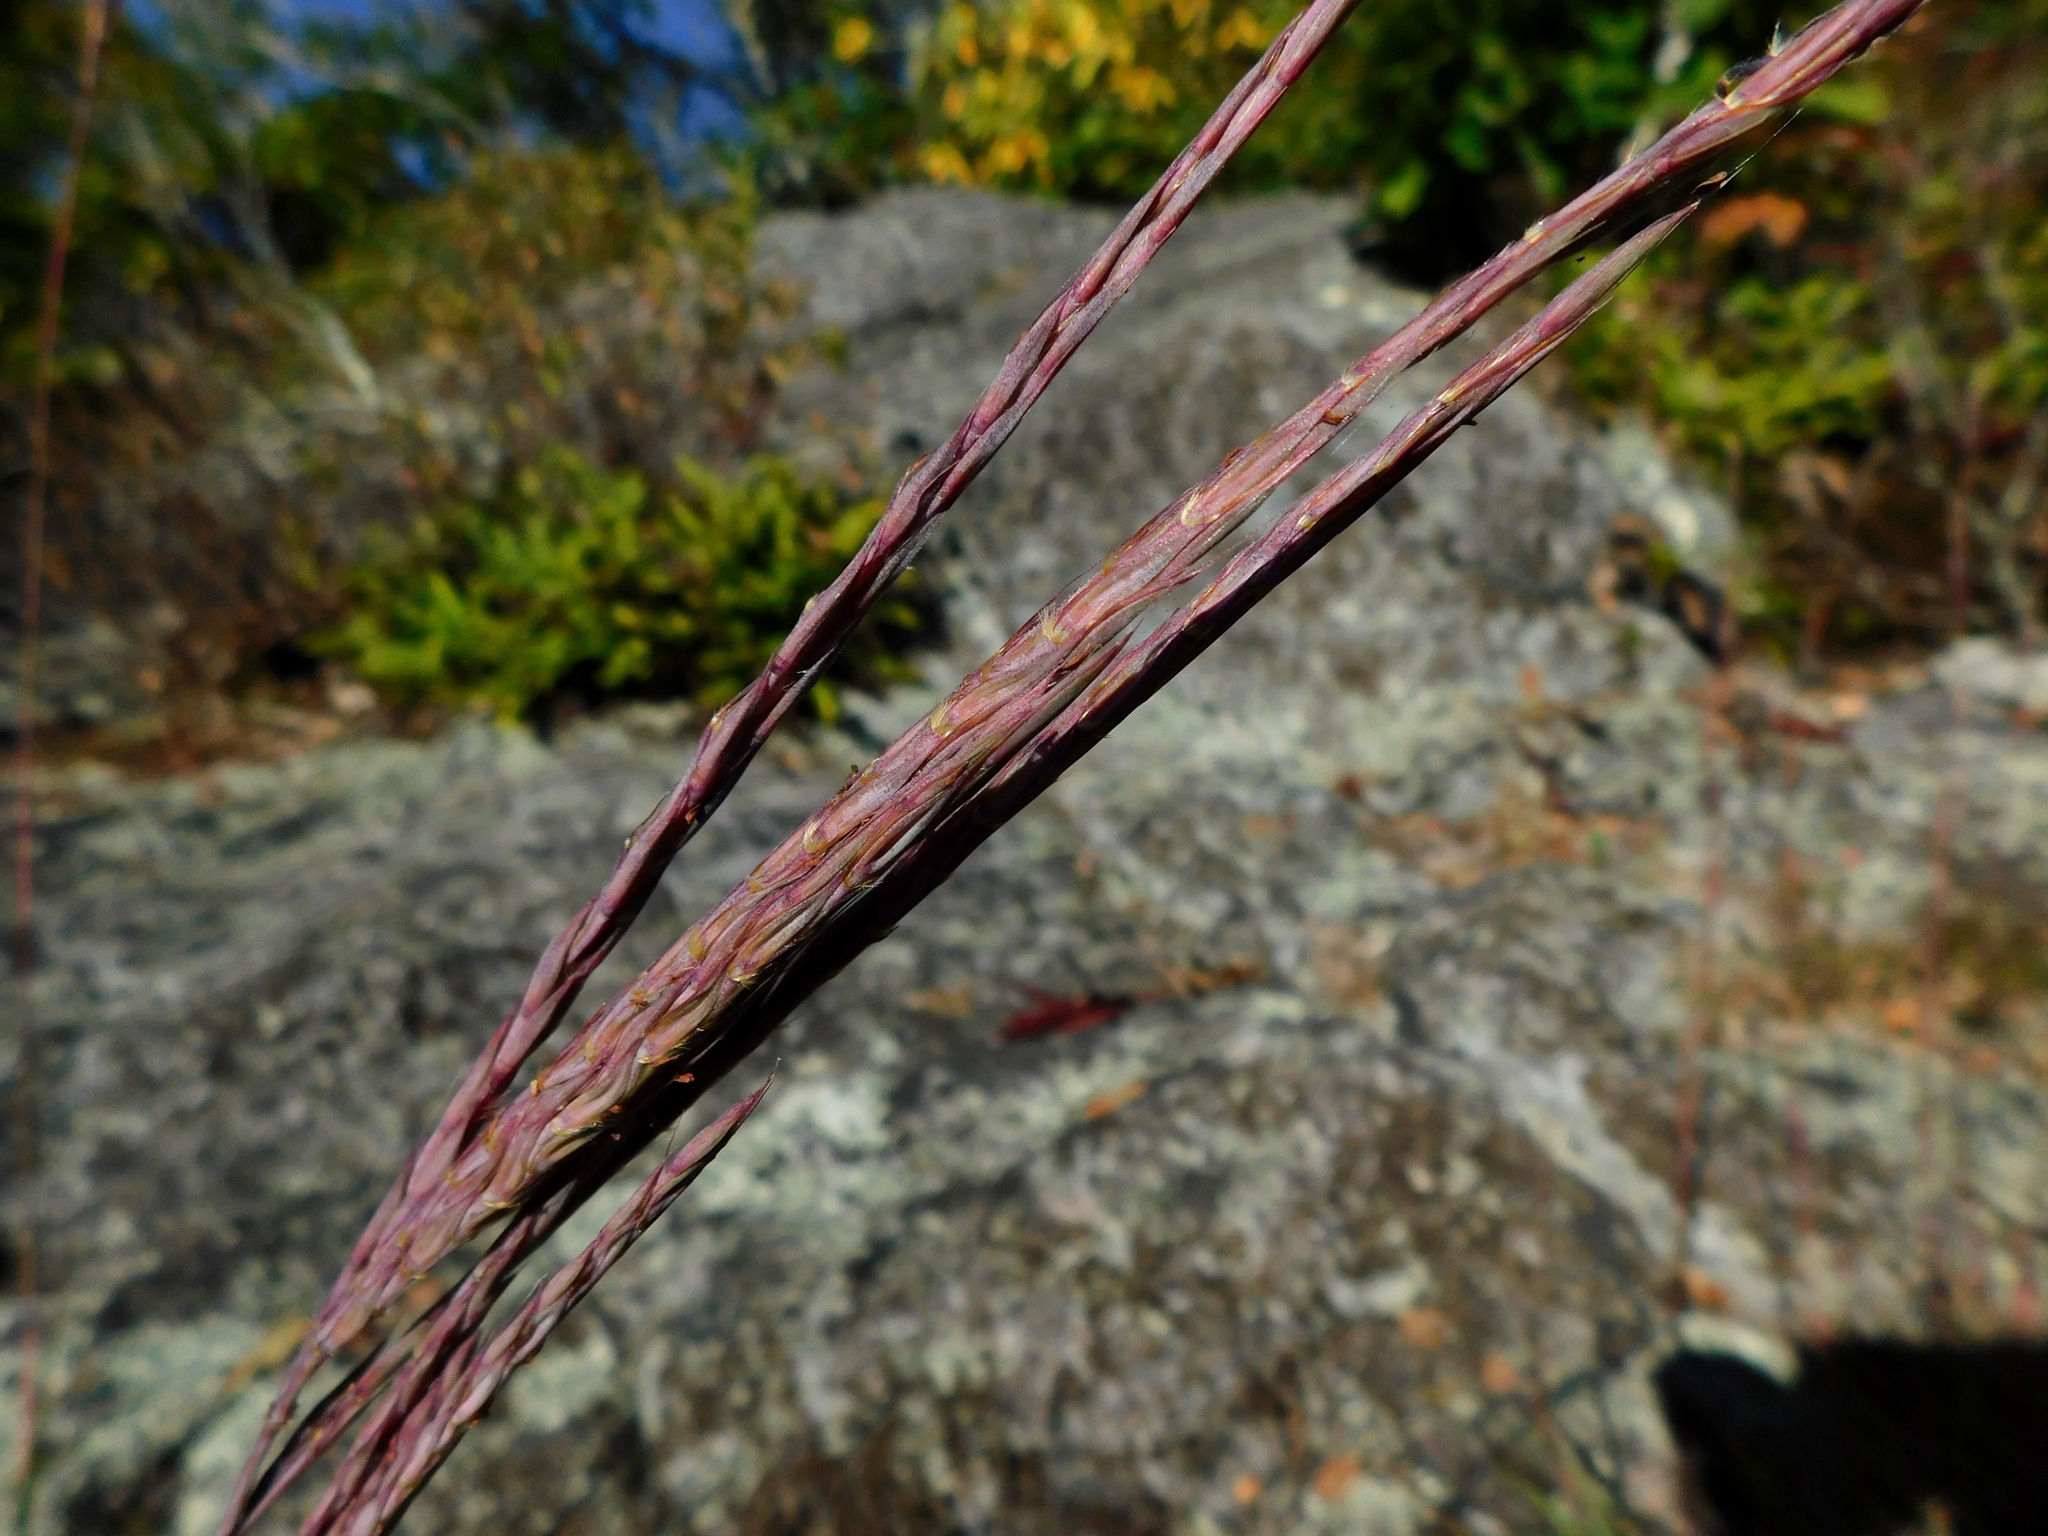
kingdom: Plantae
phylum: Tracheophyta
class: Liliopsida
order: Poales
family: Poaceae
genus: Andropogon
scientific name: Andropogon gerardi
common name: Big bluestem
